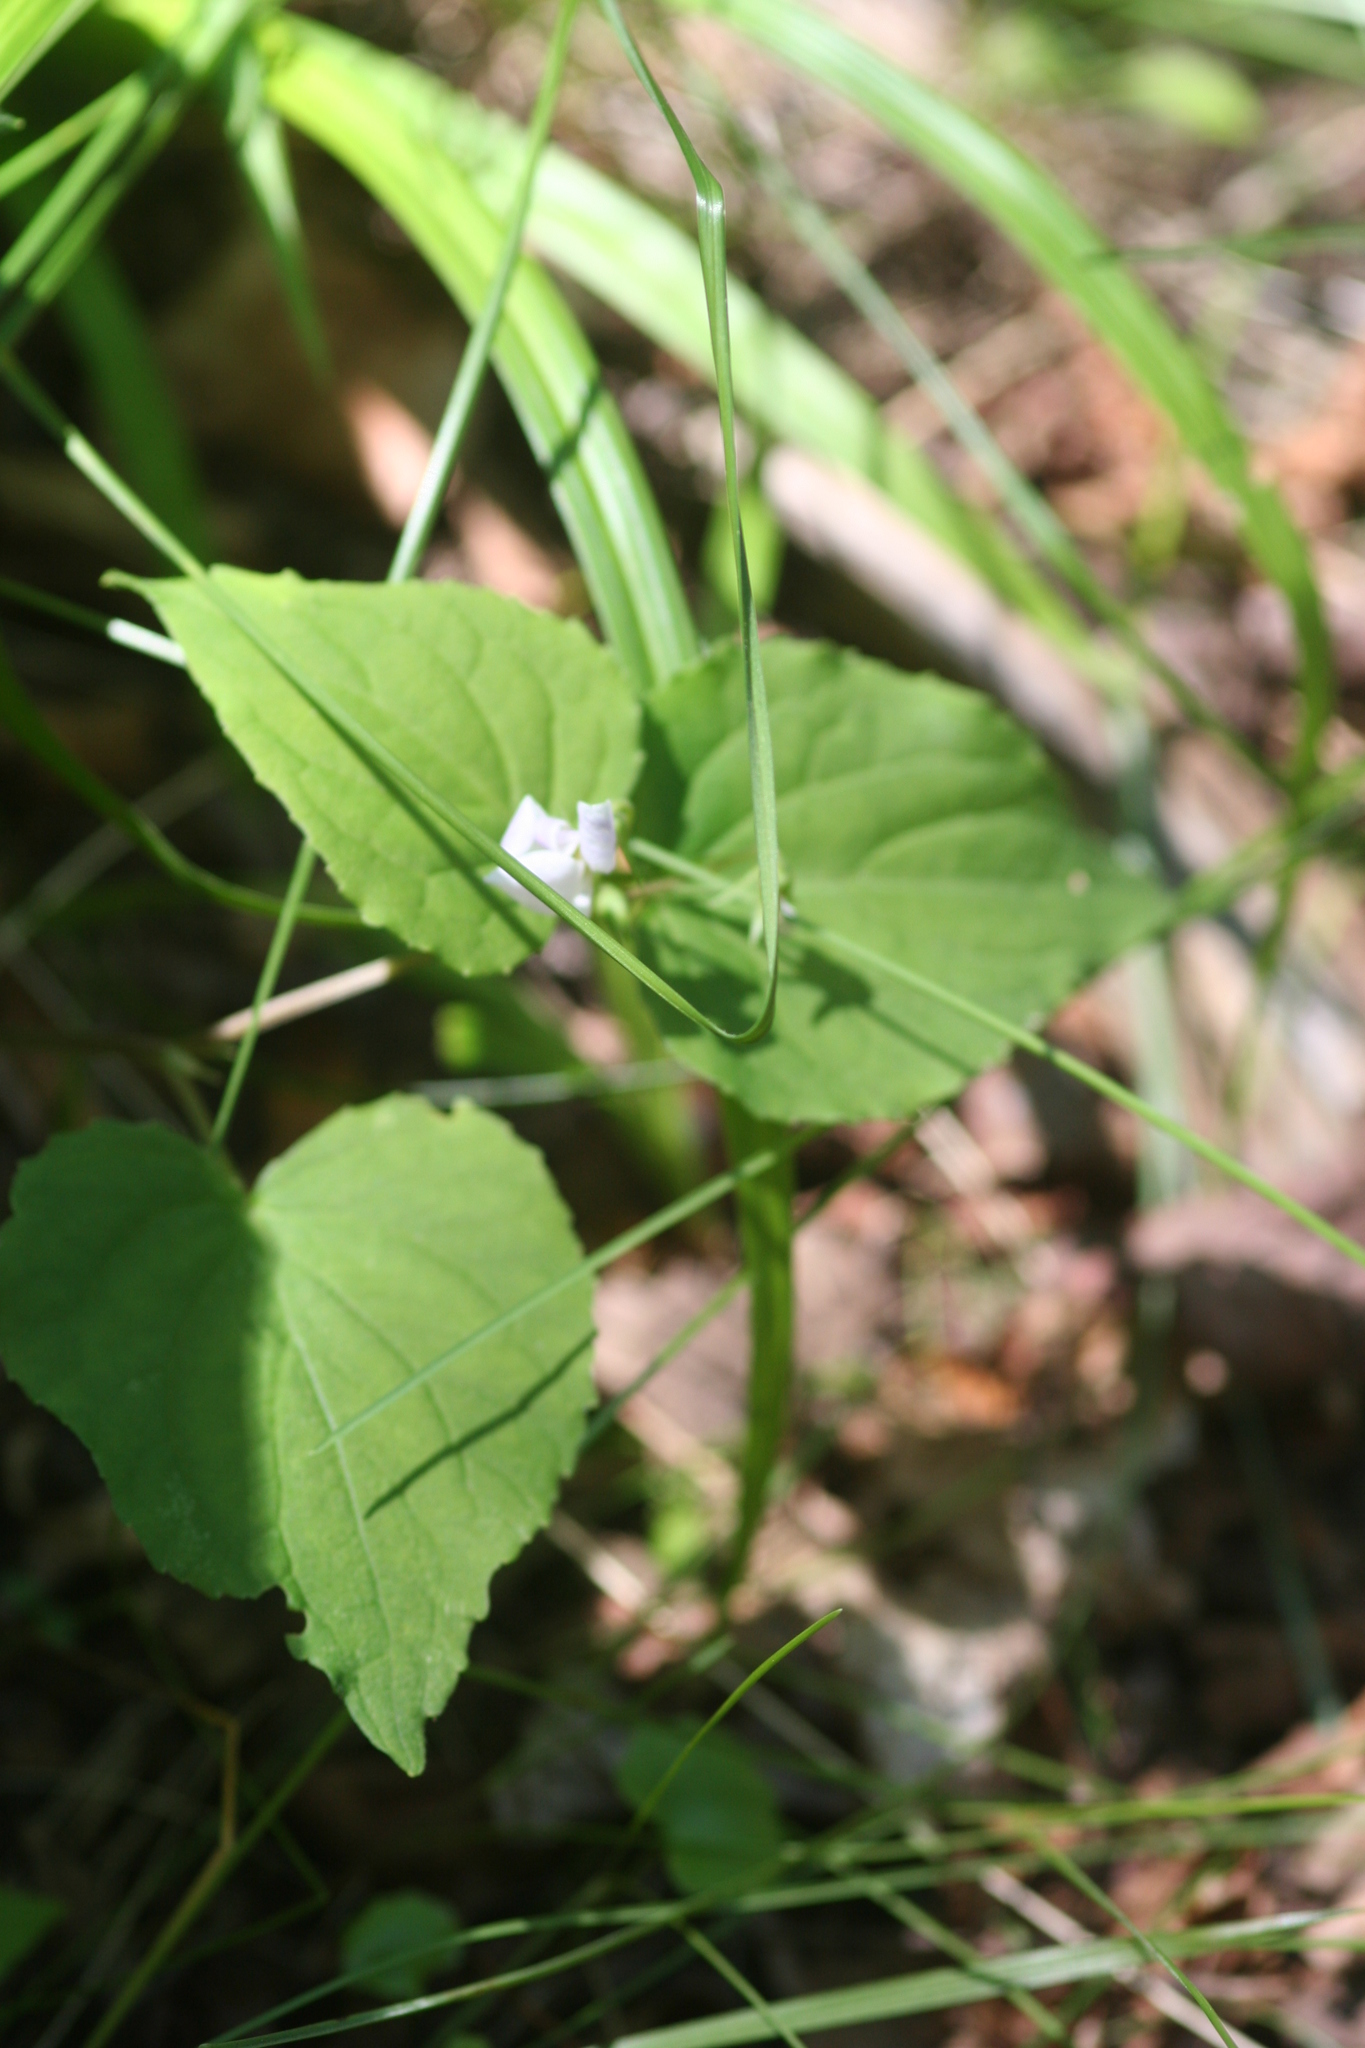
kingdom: Plantae
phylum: Tracheophyta
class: Magnoliopsida
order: Malpighiales
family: Violaceae
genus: Viola
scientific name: Viola canadensis
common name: Canada violet
